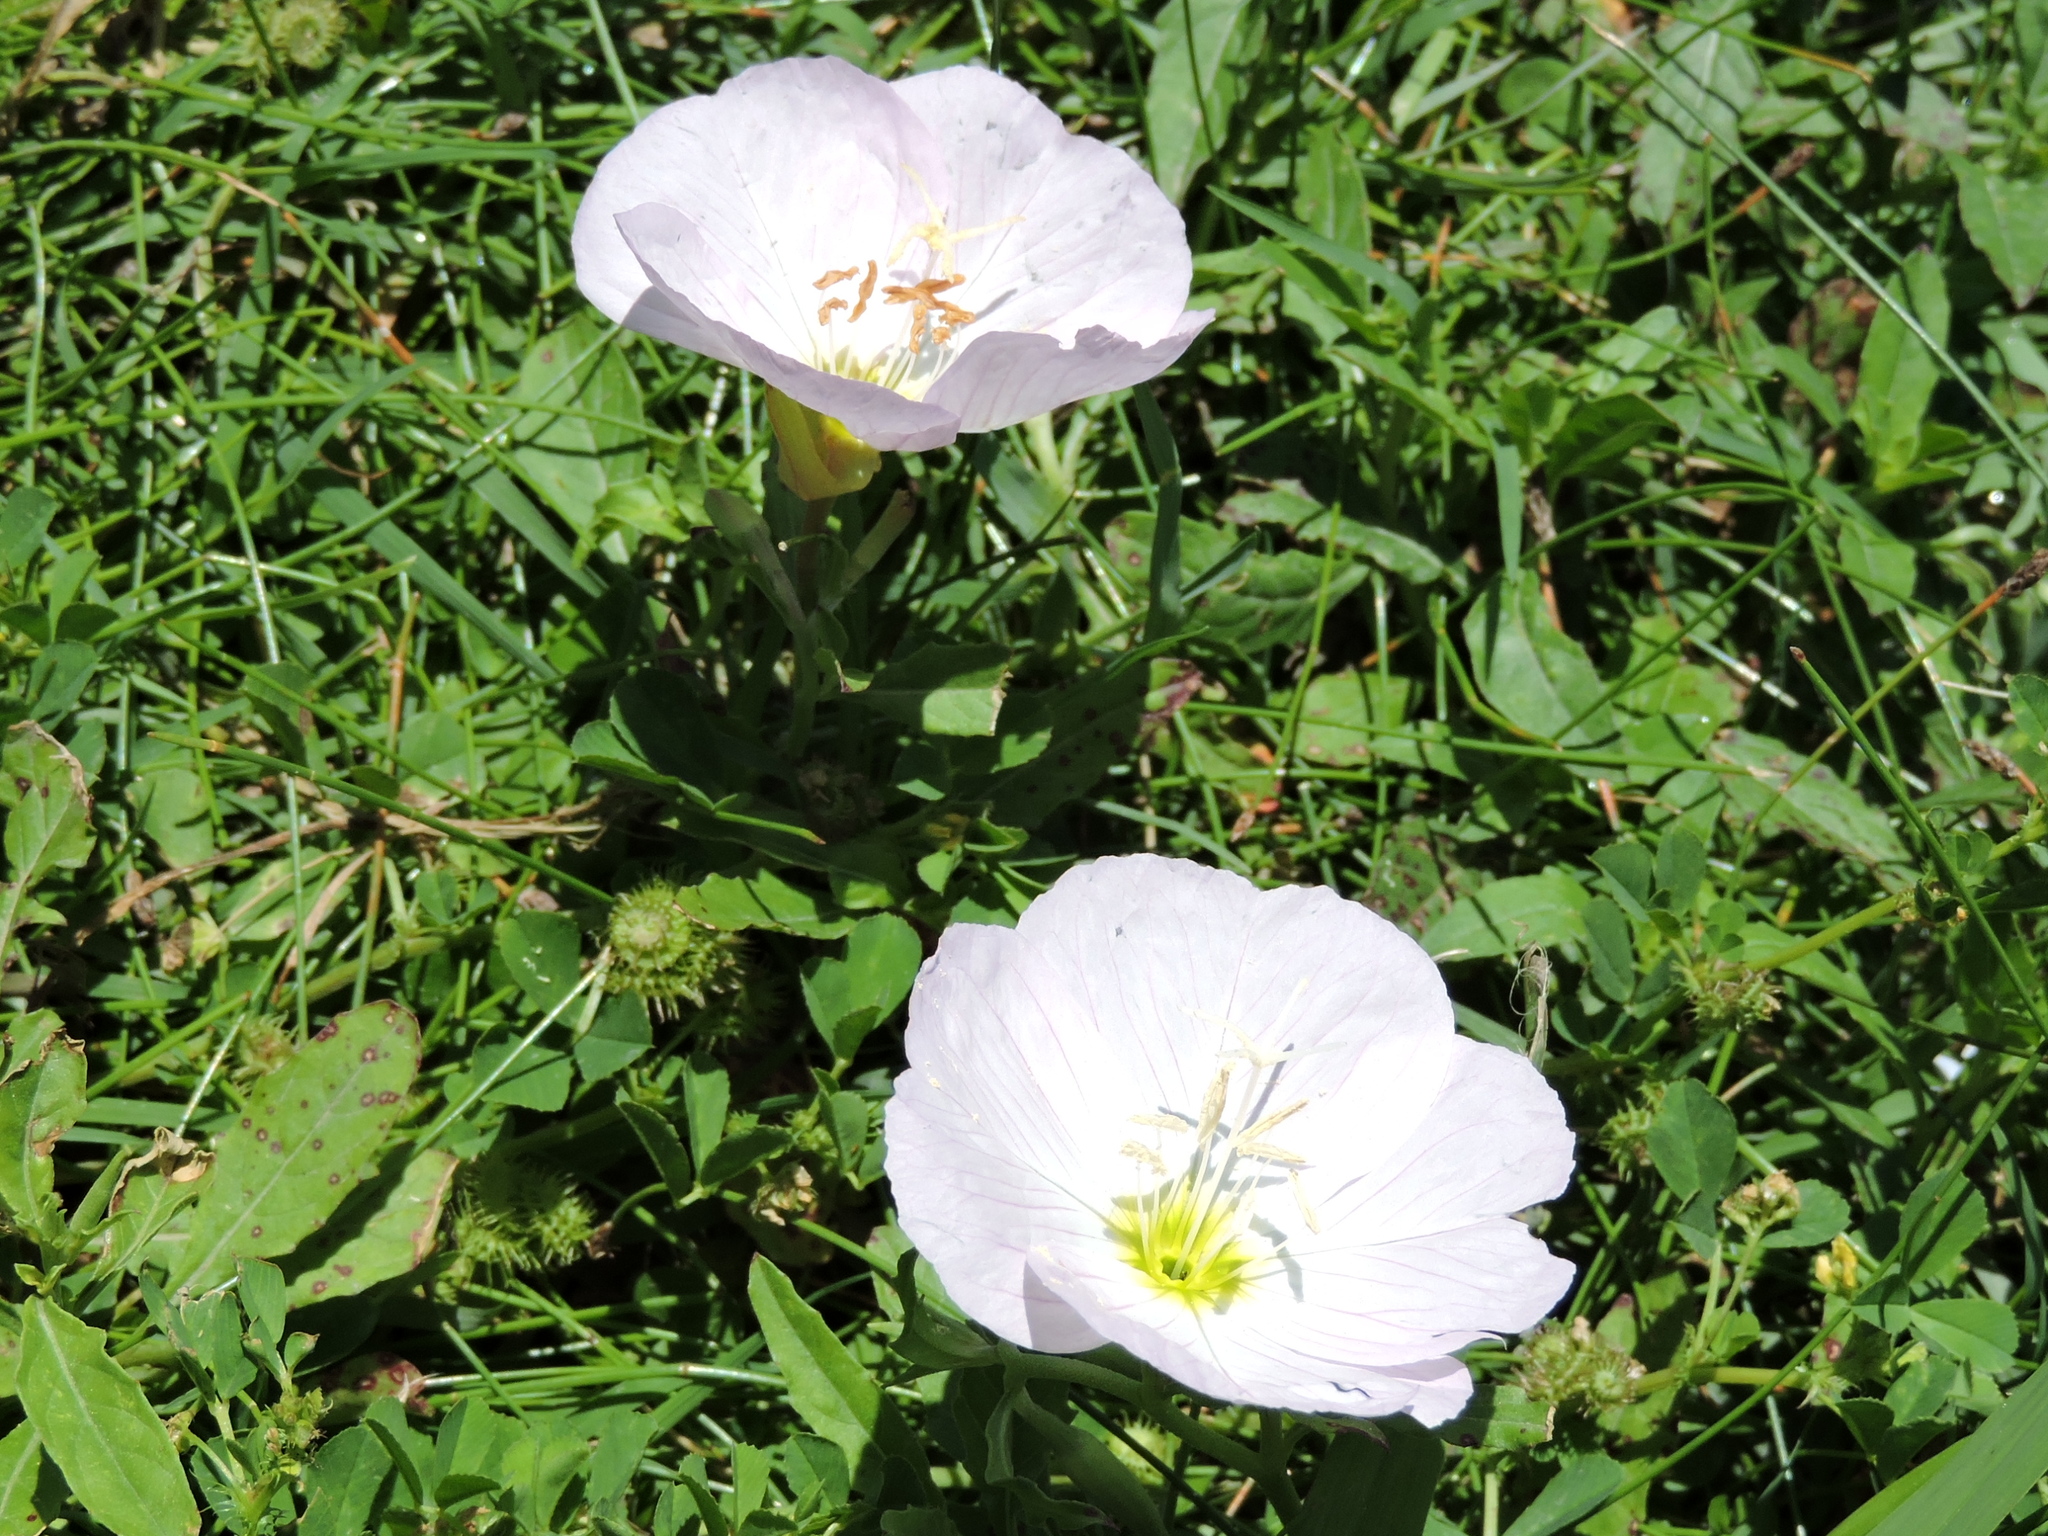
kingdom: Plantae
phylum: Tracheophyta
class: Magnoliopsida
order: Myrtales
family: Onagraceae
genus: Oenothera
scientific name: Oenothera speciosa
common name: White evening-primrose
